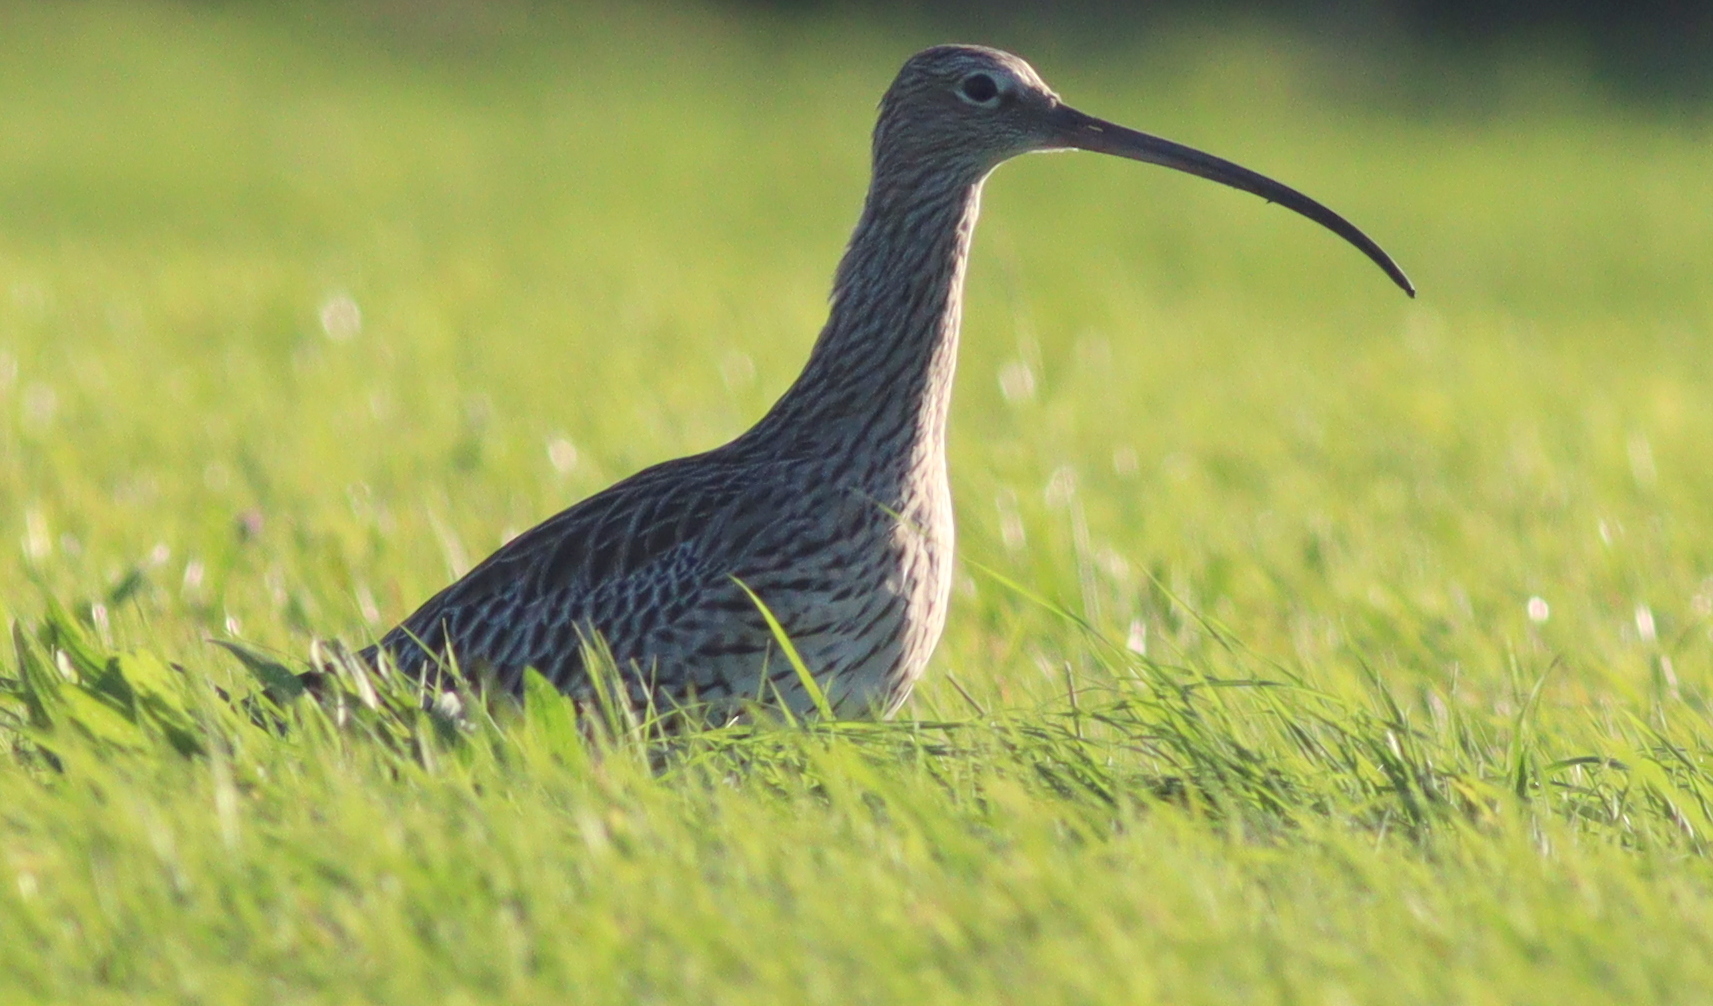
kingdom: Animalia
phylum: Chordata
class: Aves
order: Charadriiformes
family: Scolopacidae
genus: Numenius
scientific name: Numenius arquata
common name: Eurasian curlew
